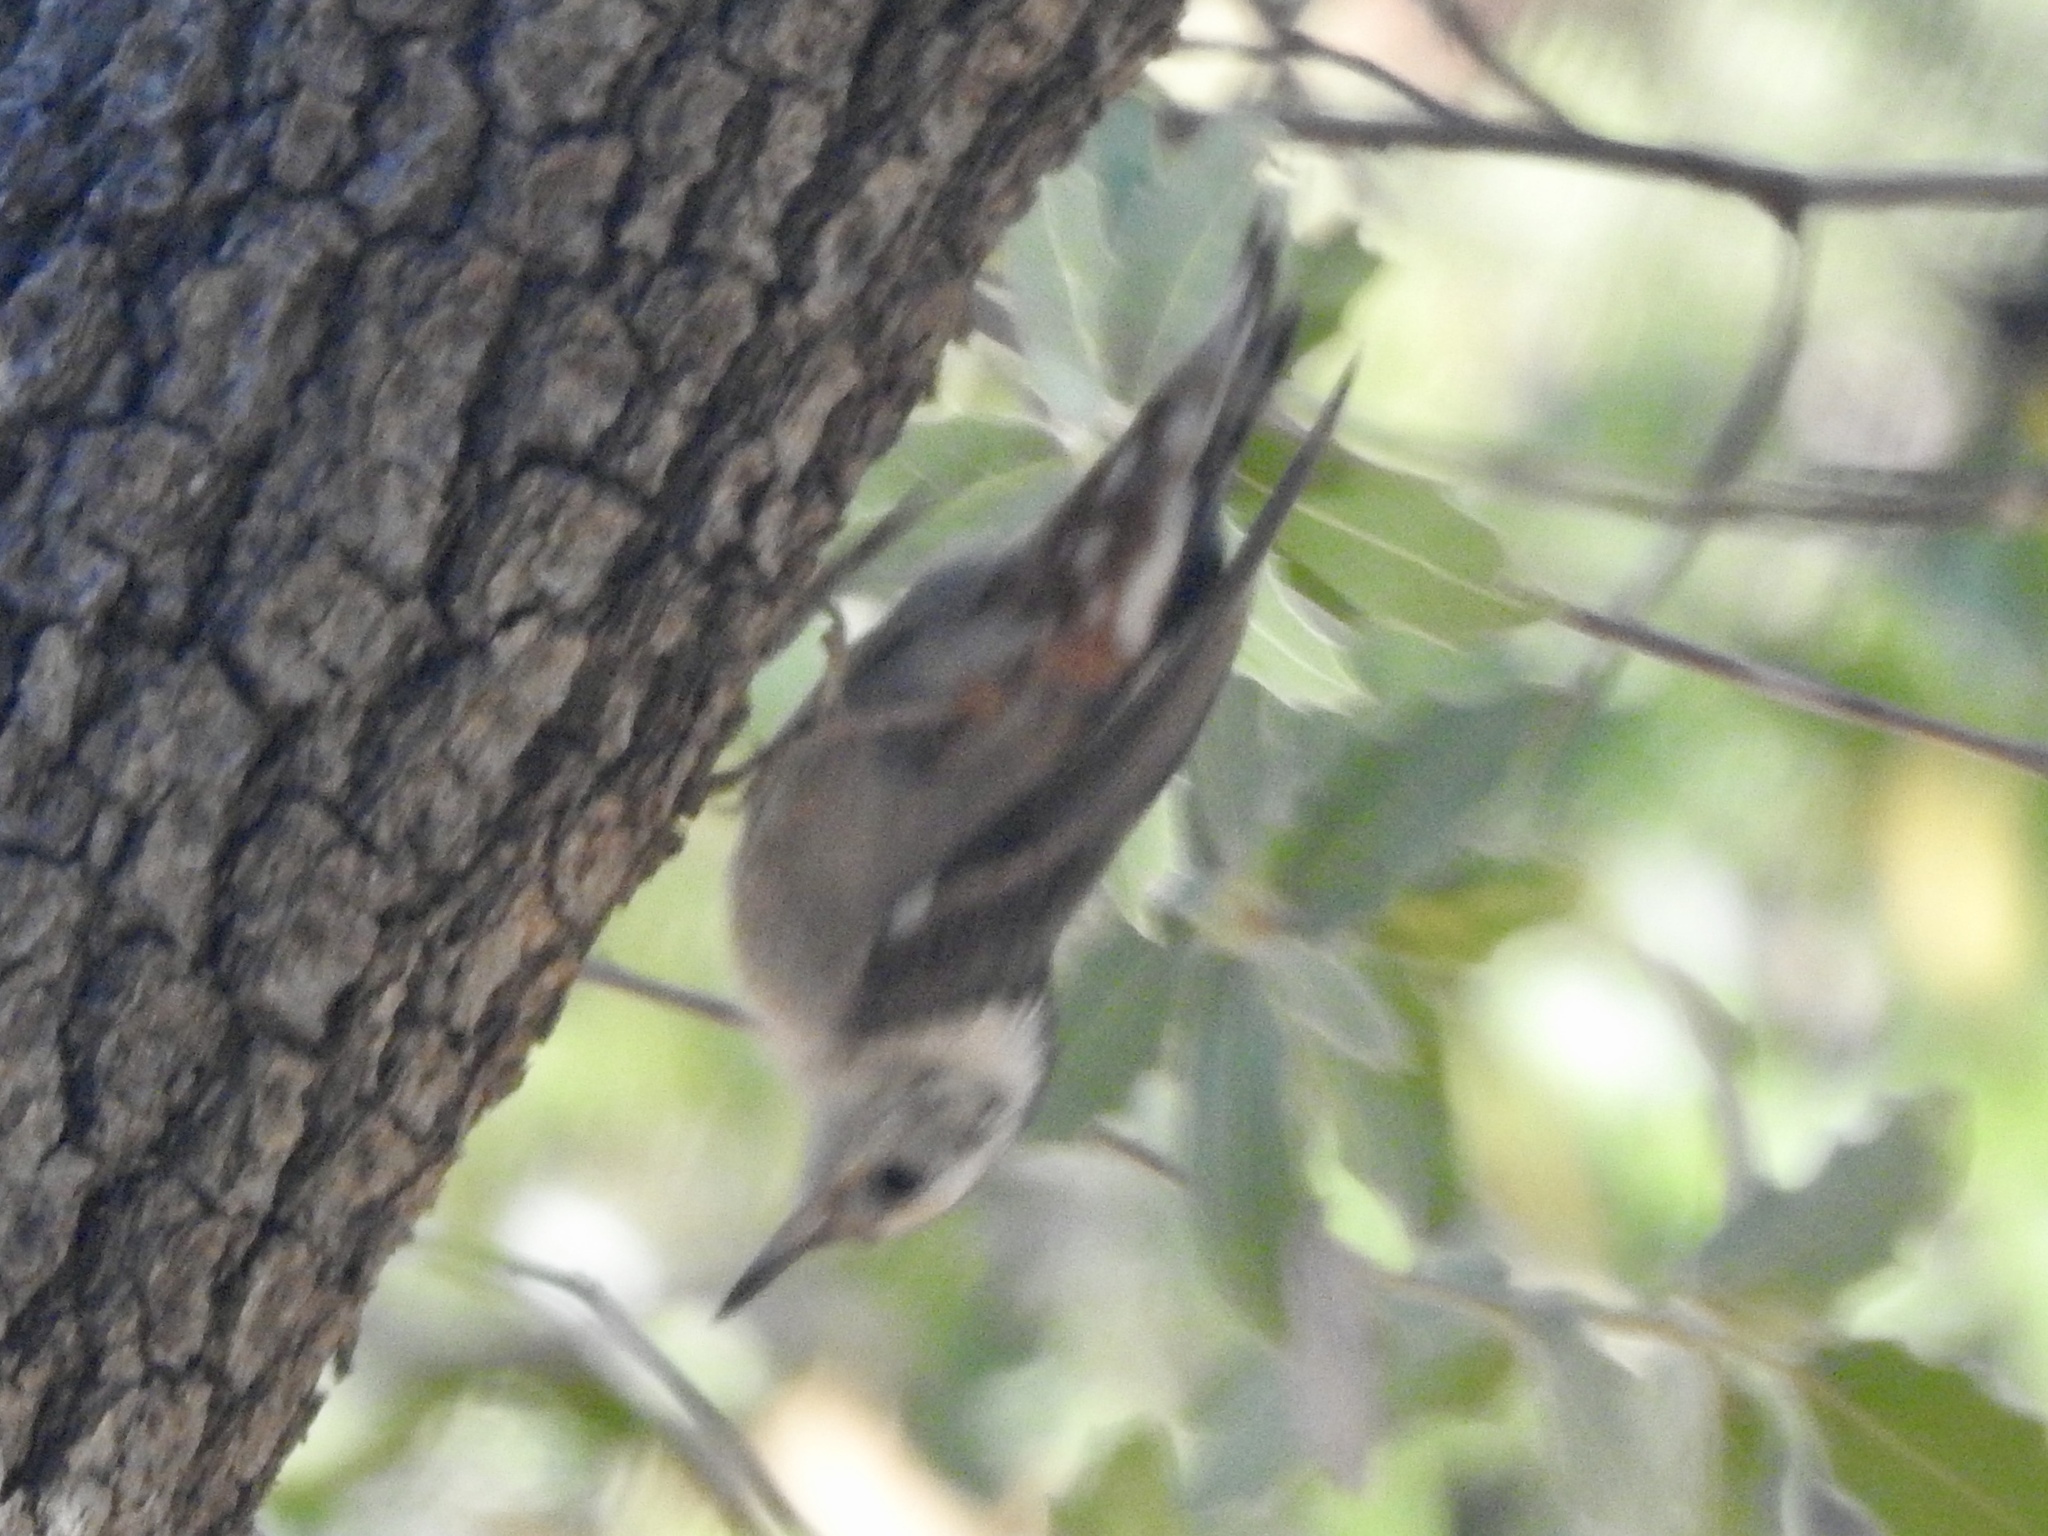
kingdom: Animalia
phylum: Chordata
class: Aves
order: Passeriformes
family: Sittidae
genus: Sitta
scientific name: Sitta carolinensis
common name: White-breasted nuthatch
